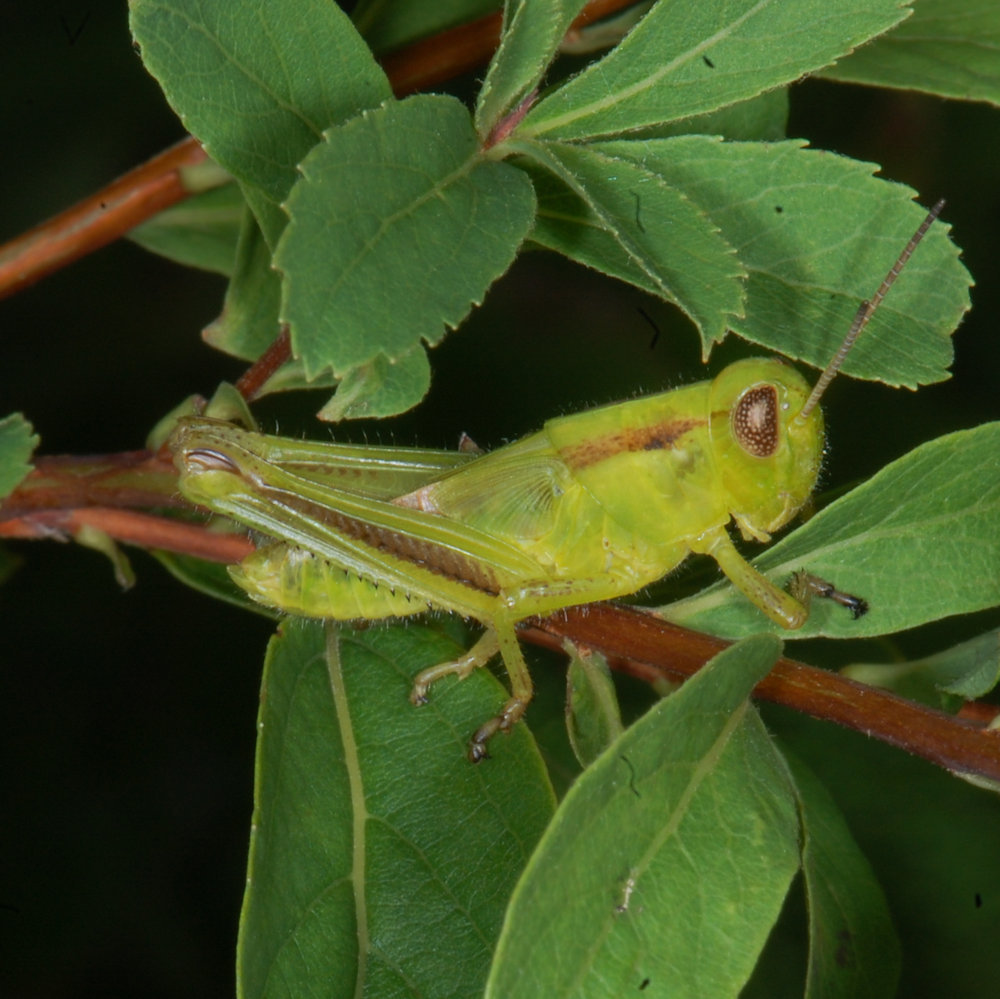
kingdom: Animalia
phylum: Arthropoda
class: Insecta
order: Orthoptera
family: Acrididae
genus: Melanoplus
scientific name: Melanoplus bivittatus
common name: Two-striped grasshopper
